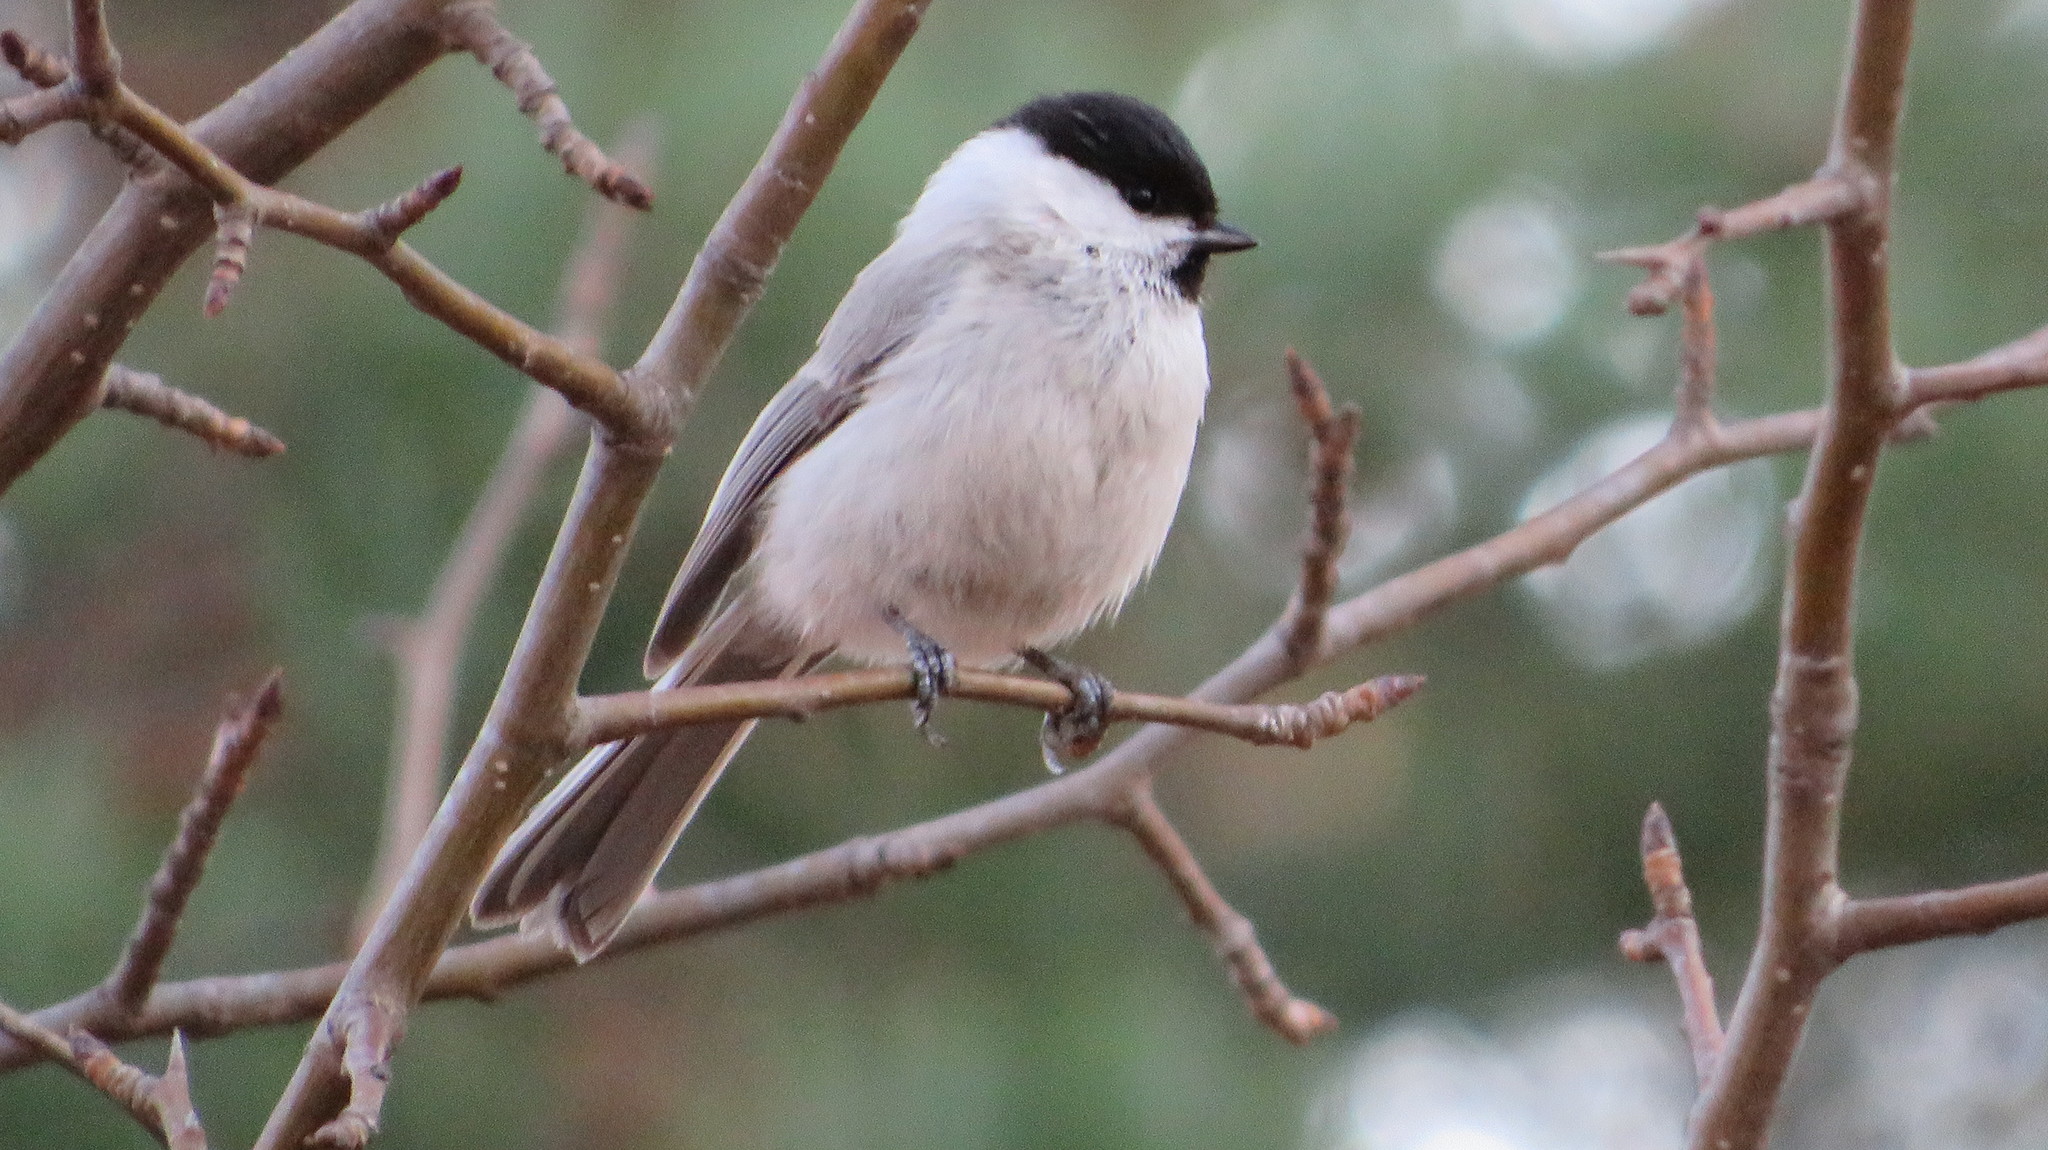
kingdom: Animalia
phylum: Chordata
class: Aves
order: Passeriformes
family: Paridae
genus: Poecile
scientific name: Poecile montanus
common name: Willow tit
